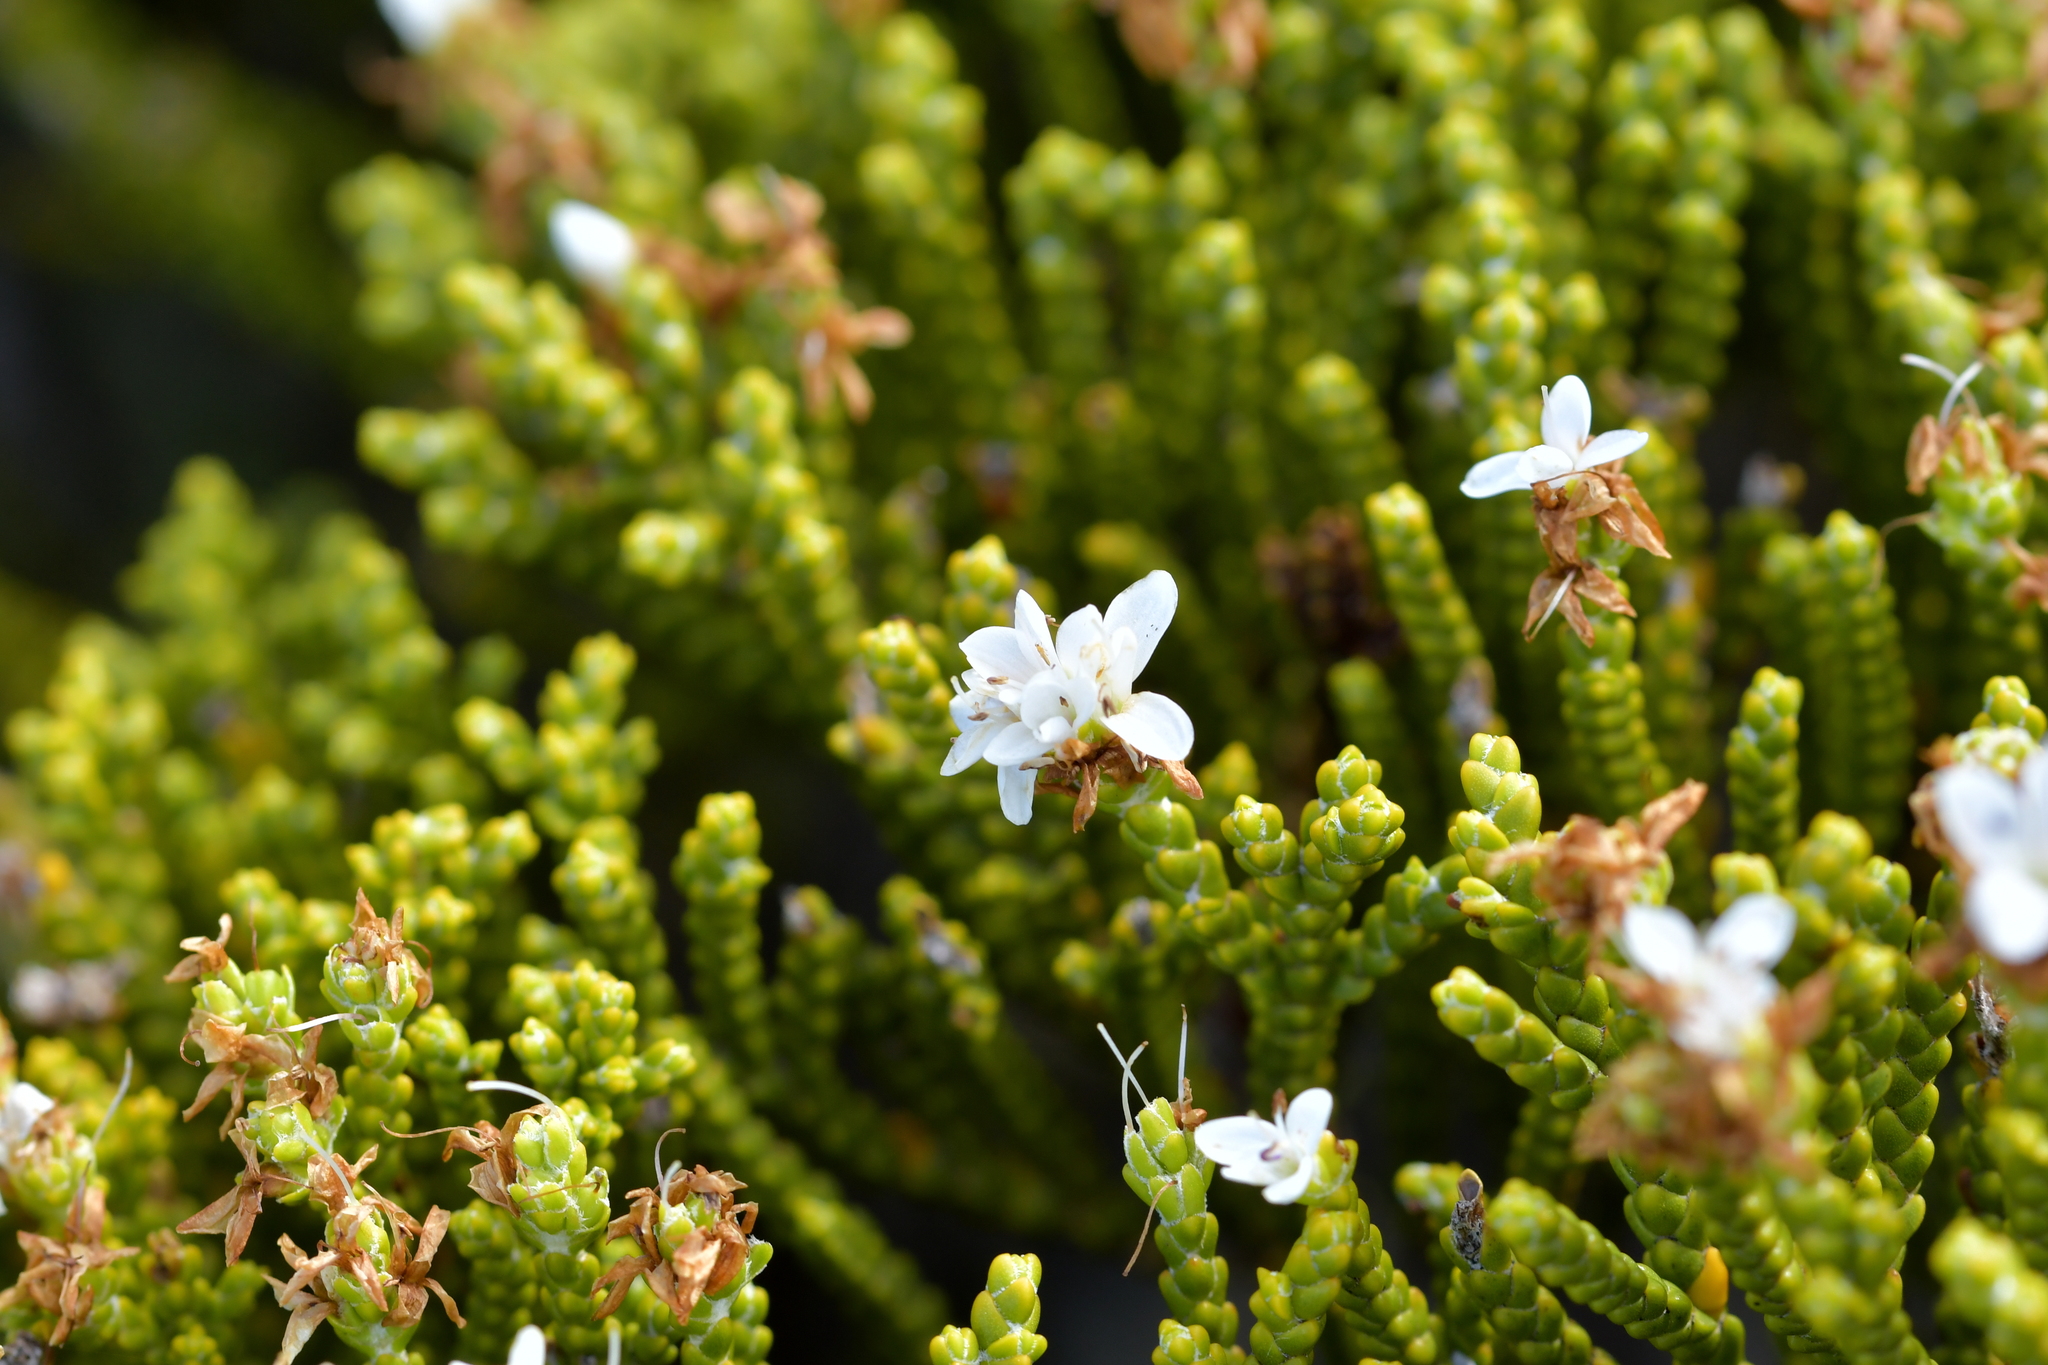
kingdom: Plantae
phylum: Tracheophyta
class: Magnoliopsida
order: Lamiales
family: Plantaginaceae
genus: Veronica
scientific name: Veronica tetragona
